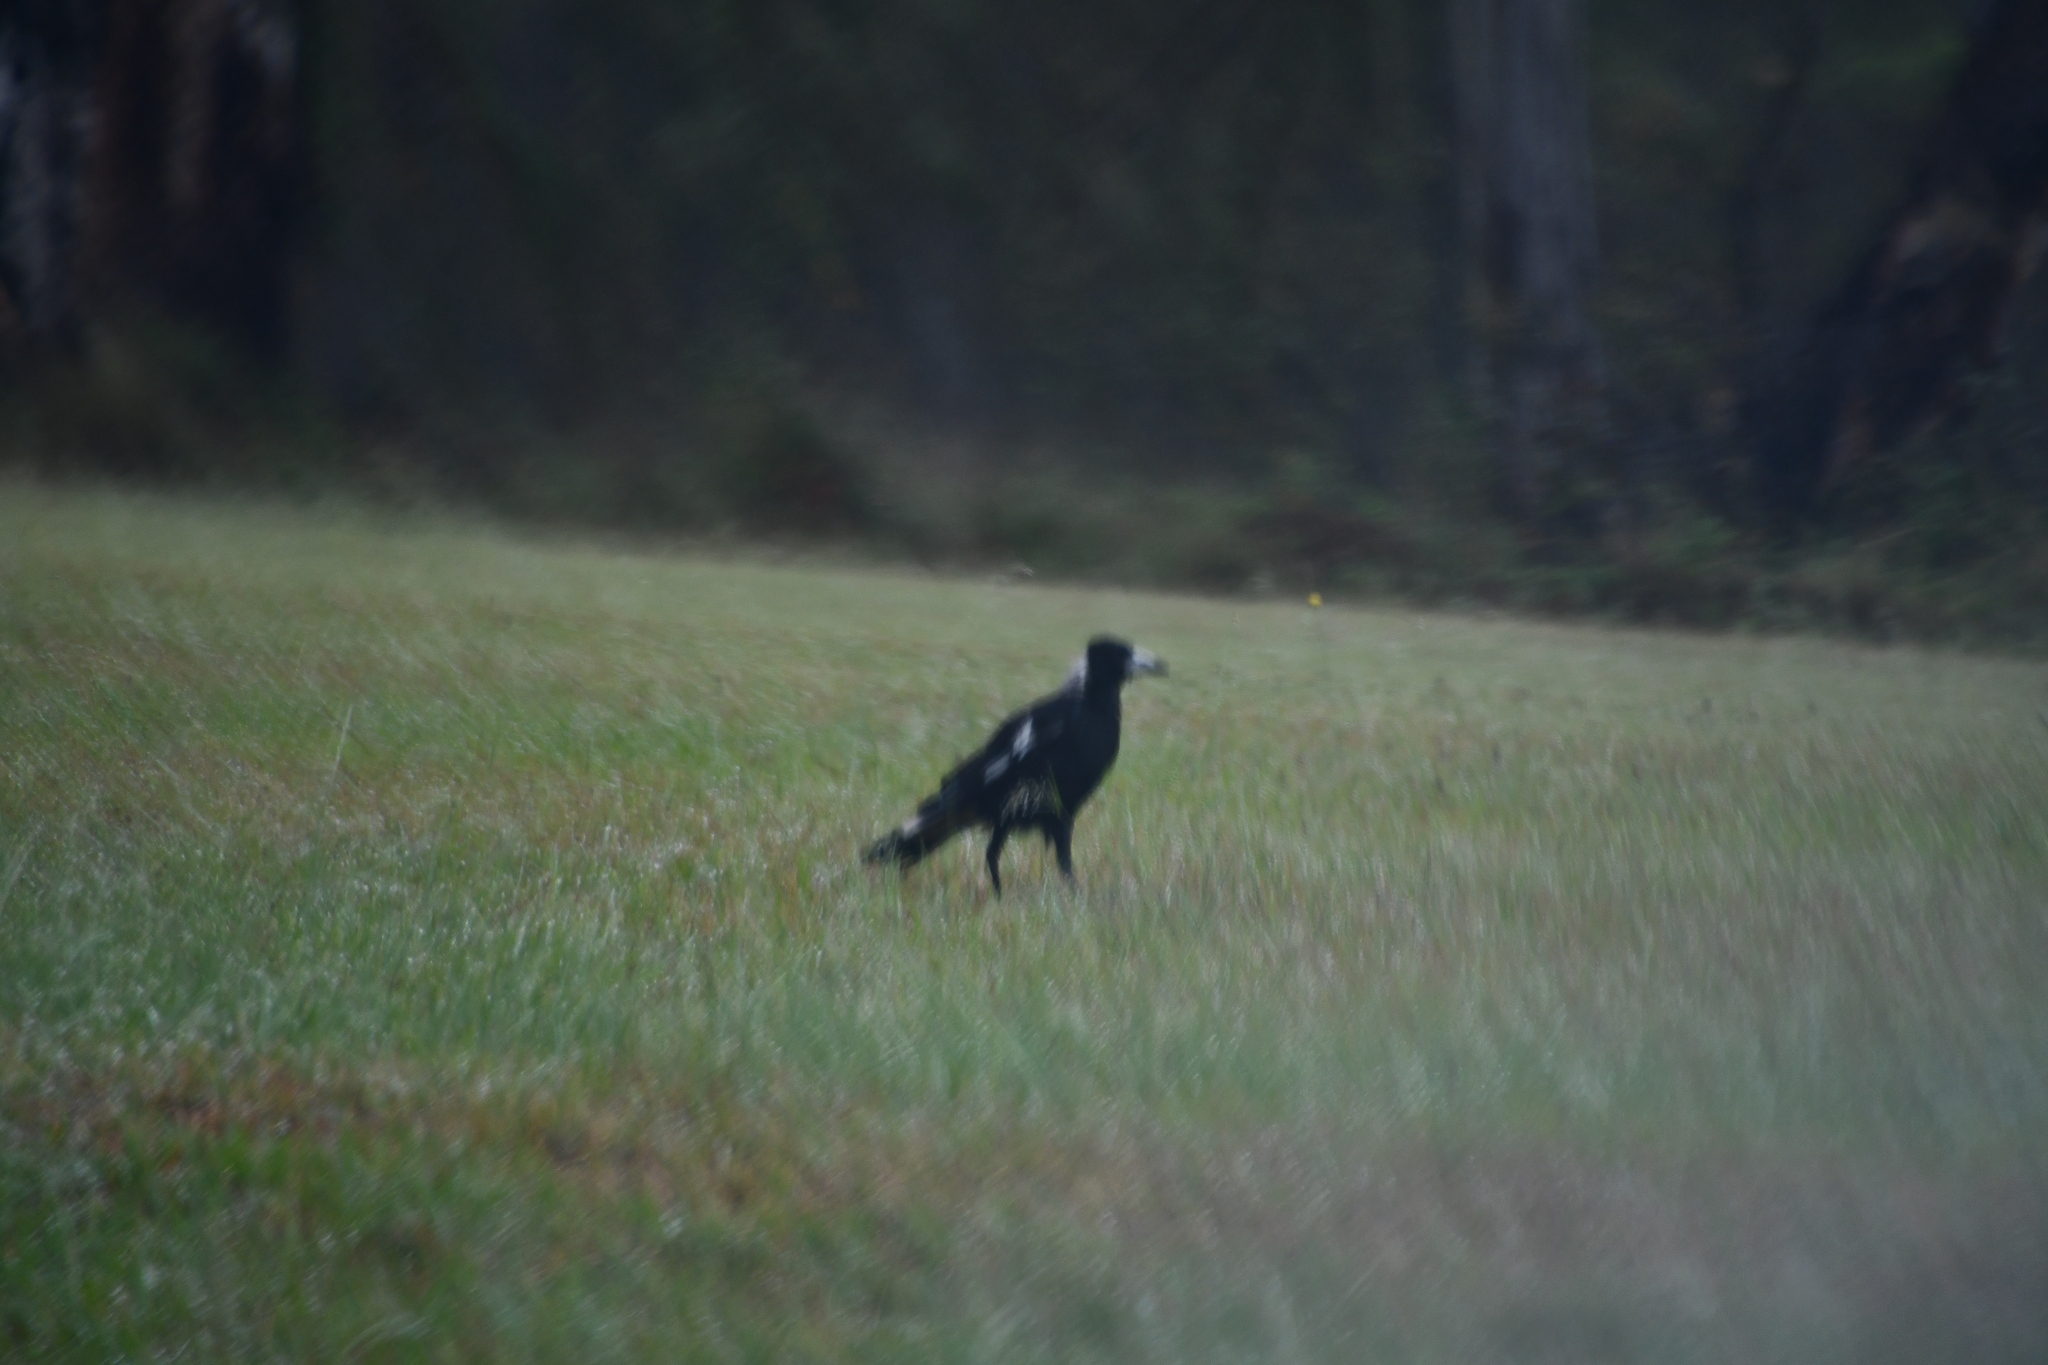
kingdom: Animalia
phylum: Chordata
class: Aves
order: Passeriformes
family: Cracticidae
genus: Gymnorhina
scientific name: Gymnorhina tibicen
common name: Australian magpie
